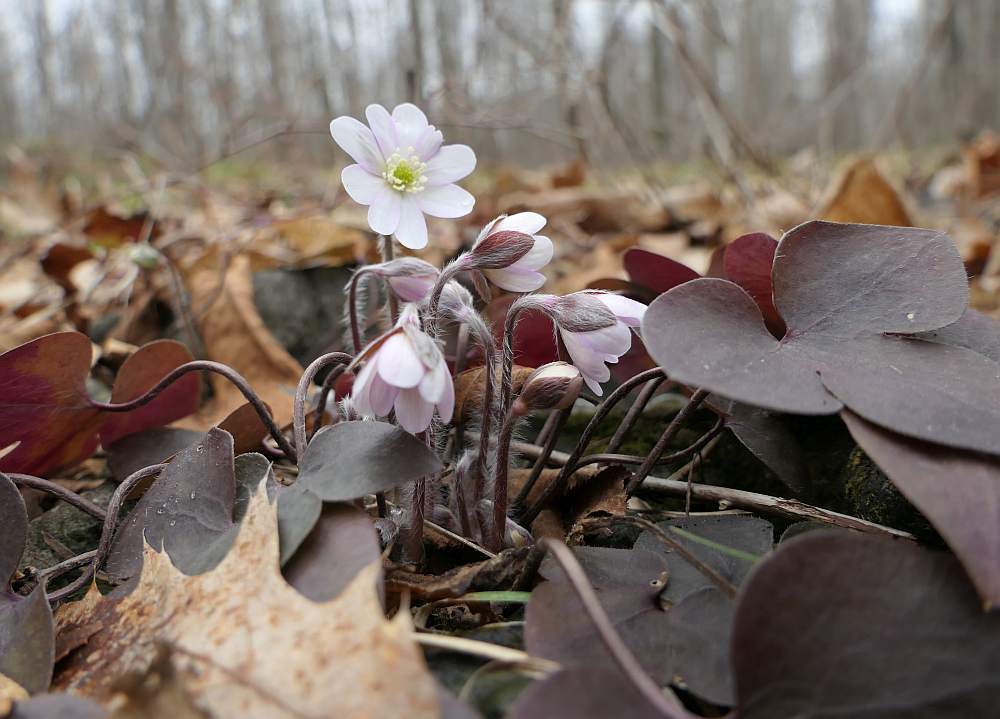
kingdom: Plantae
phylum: Tracheophyta
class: Magnoliopsida
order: Ranunculales
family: Ranunculaceae
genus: Hepatica
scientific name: Hepatica acutiloba
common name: Sharp-lobed hepatica
